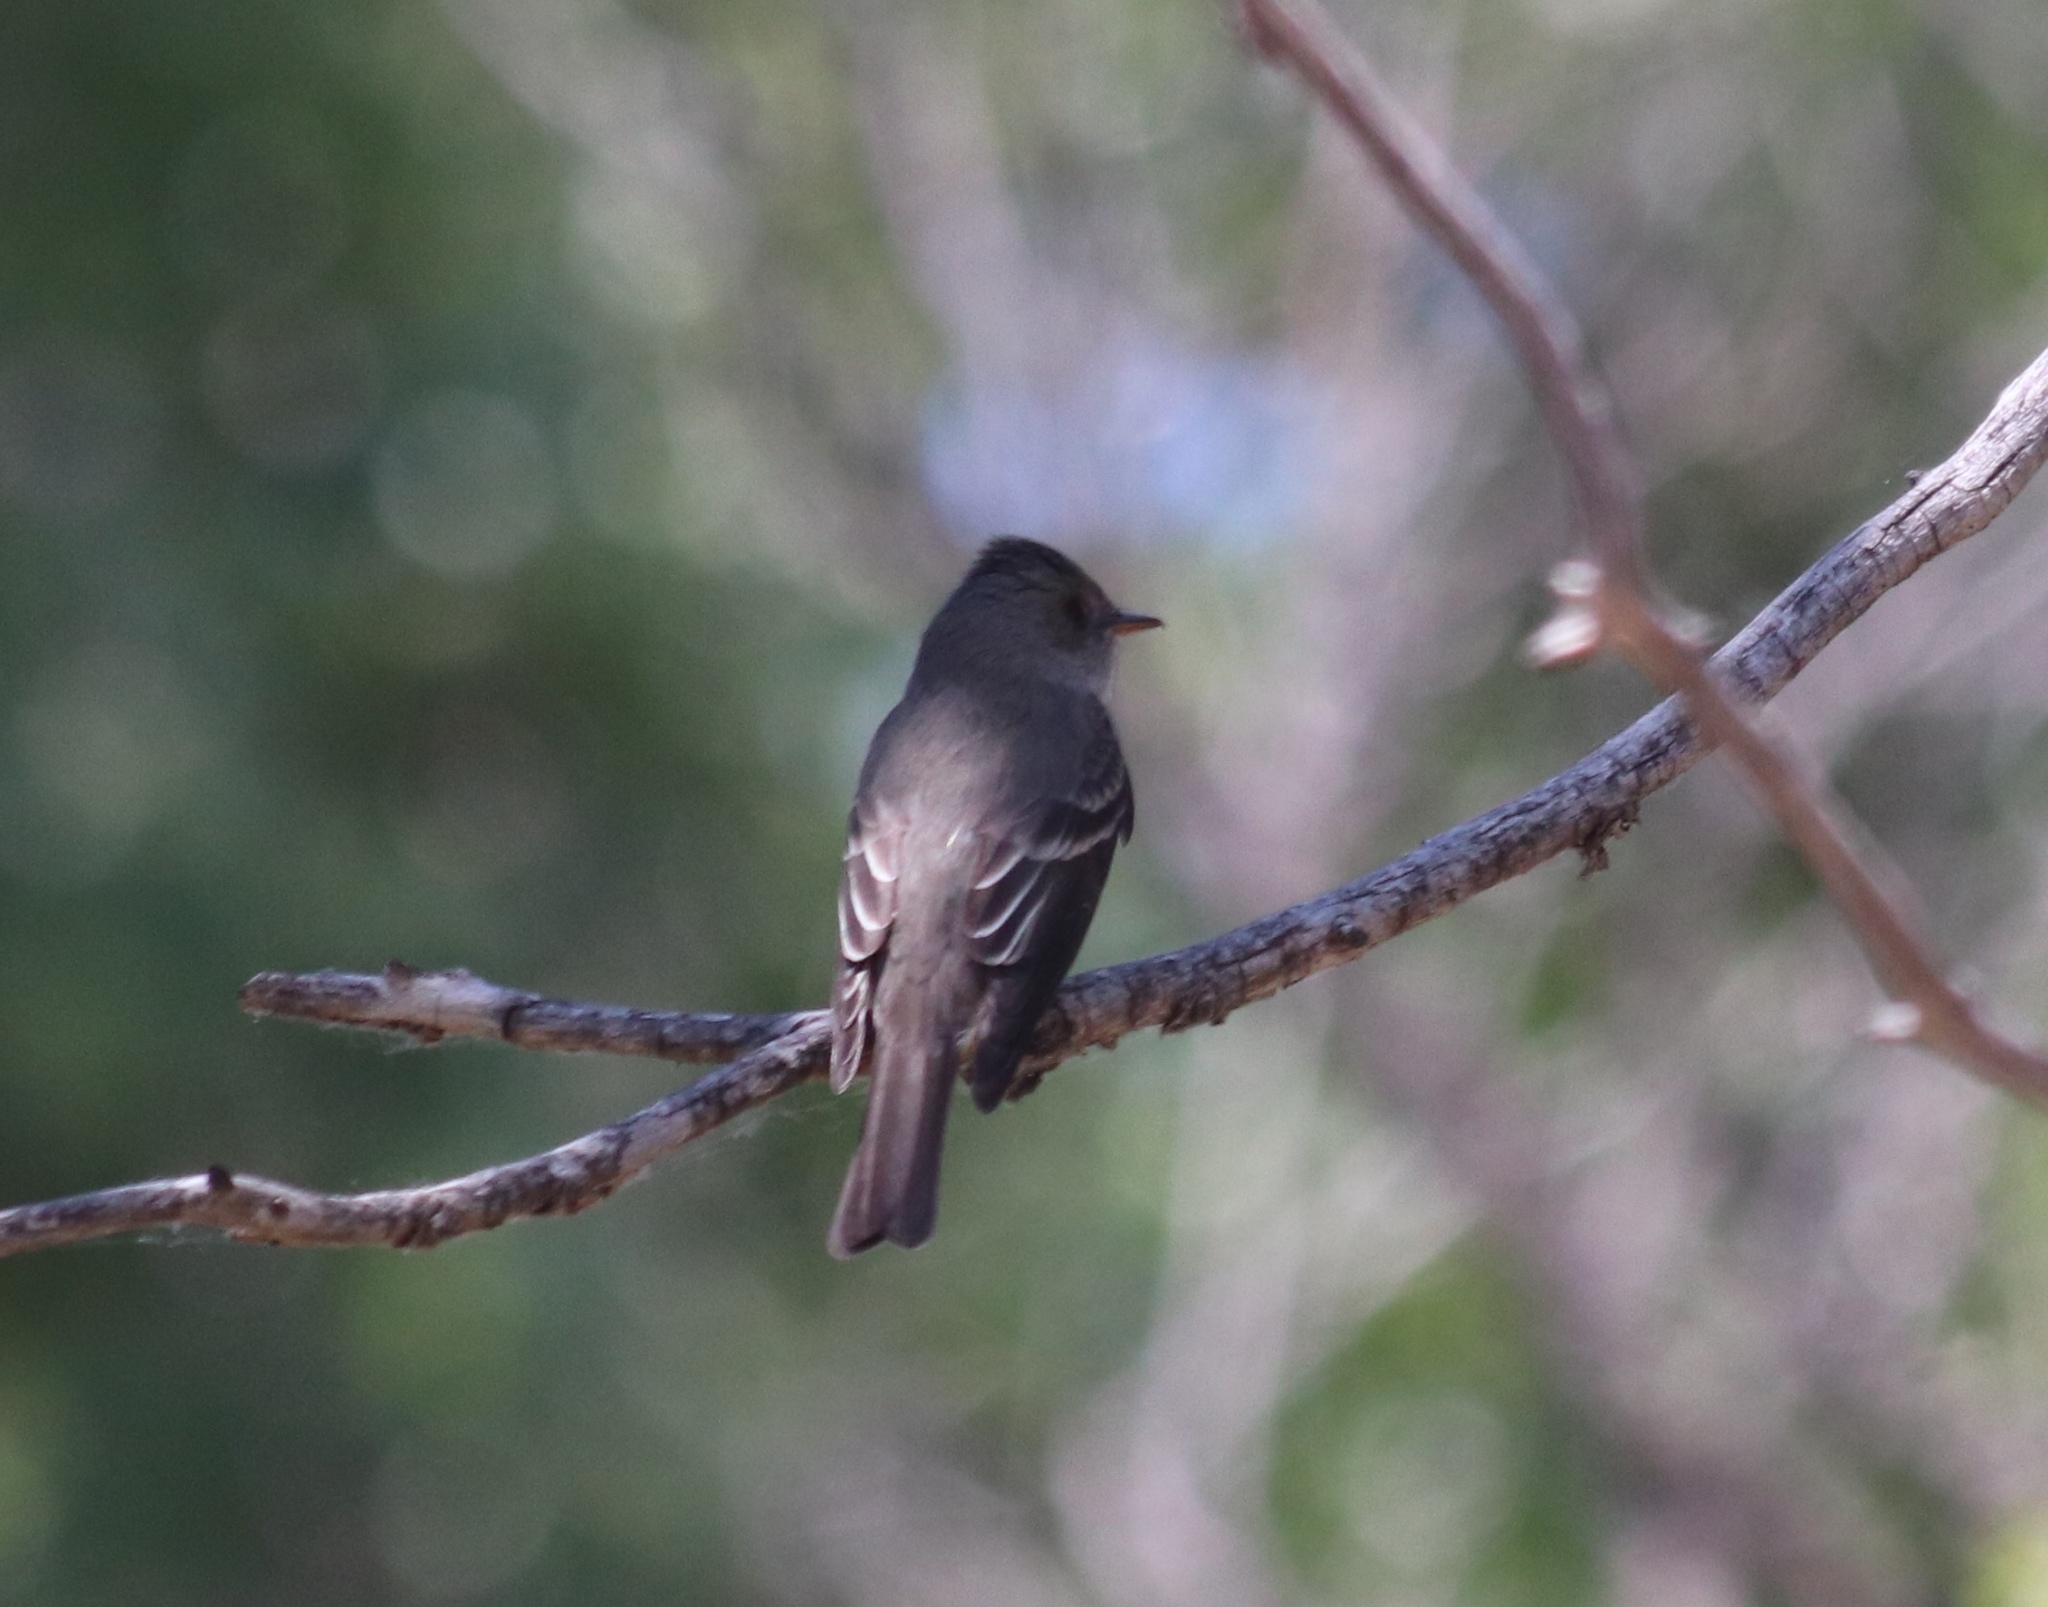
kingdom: Animalia
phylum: Chordata
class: Aves
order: Passeriformes
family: Tyrannidae
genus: Contopus
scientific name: Contopus sordidulus
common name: Western wood-pewee
